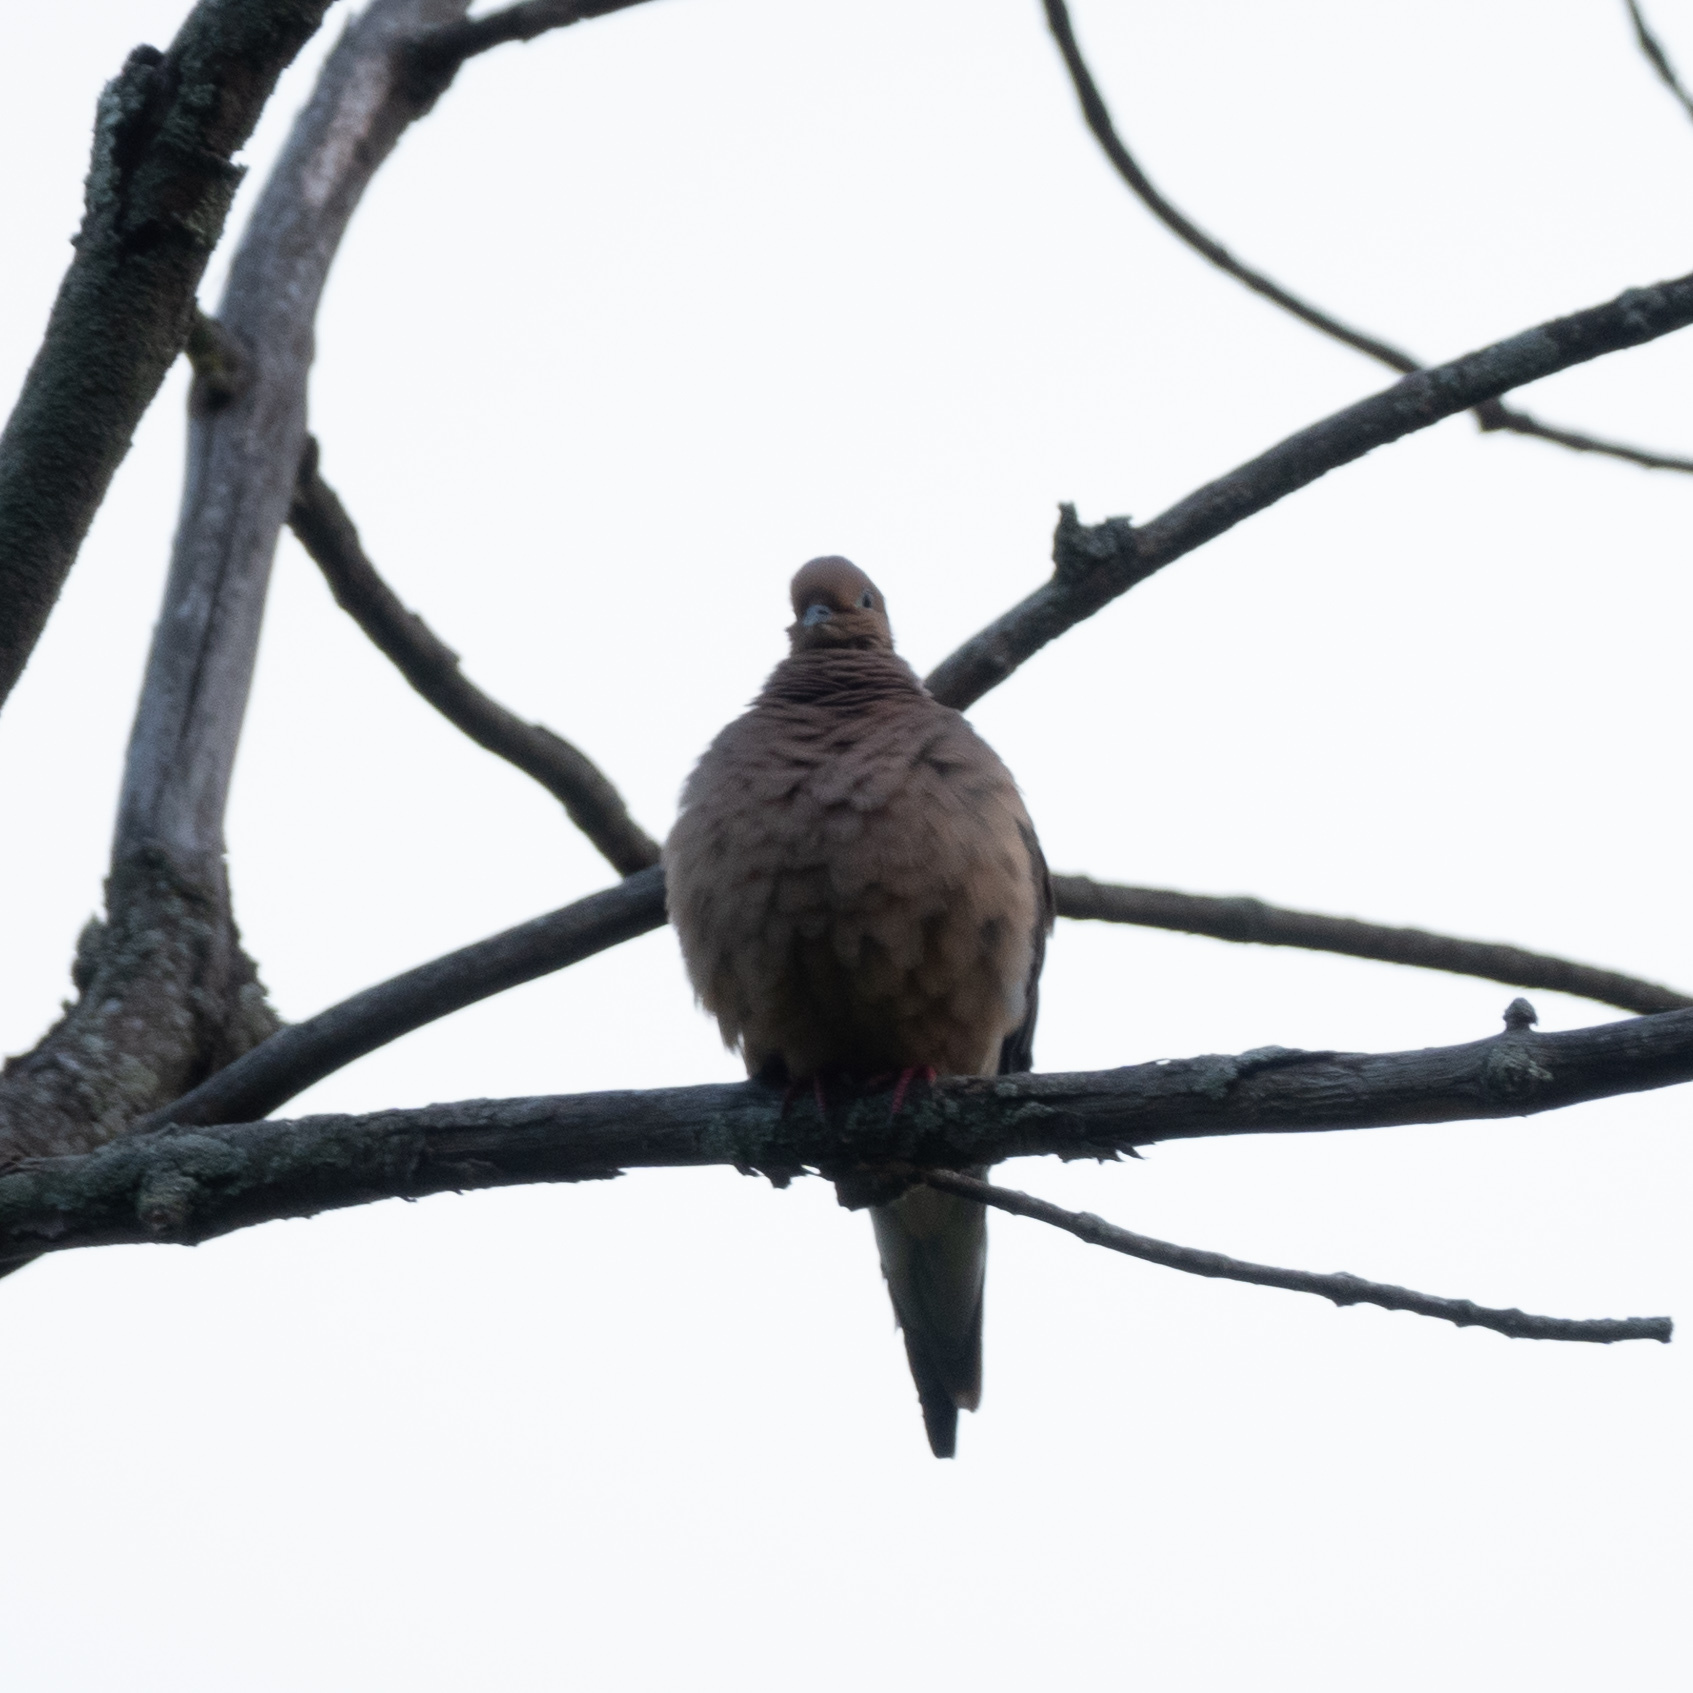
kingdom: Animalia
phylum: Chordata
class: Aves
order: Columbiformes
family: Columbidae
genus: Zenaida
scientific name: Zenaida macroura
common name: Mourning dove
